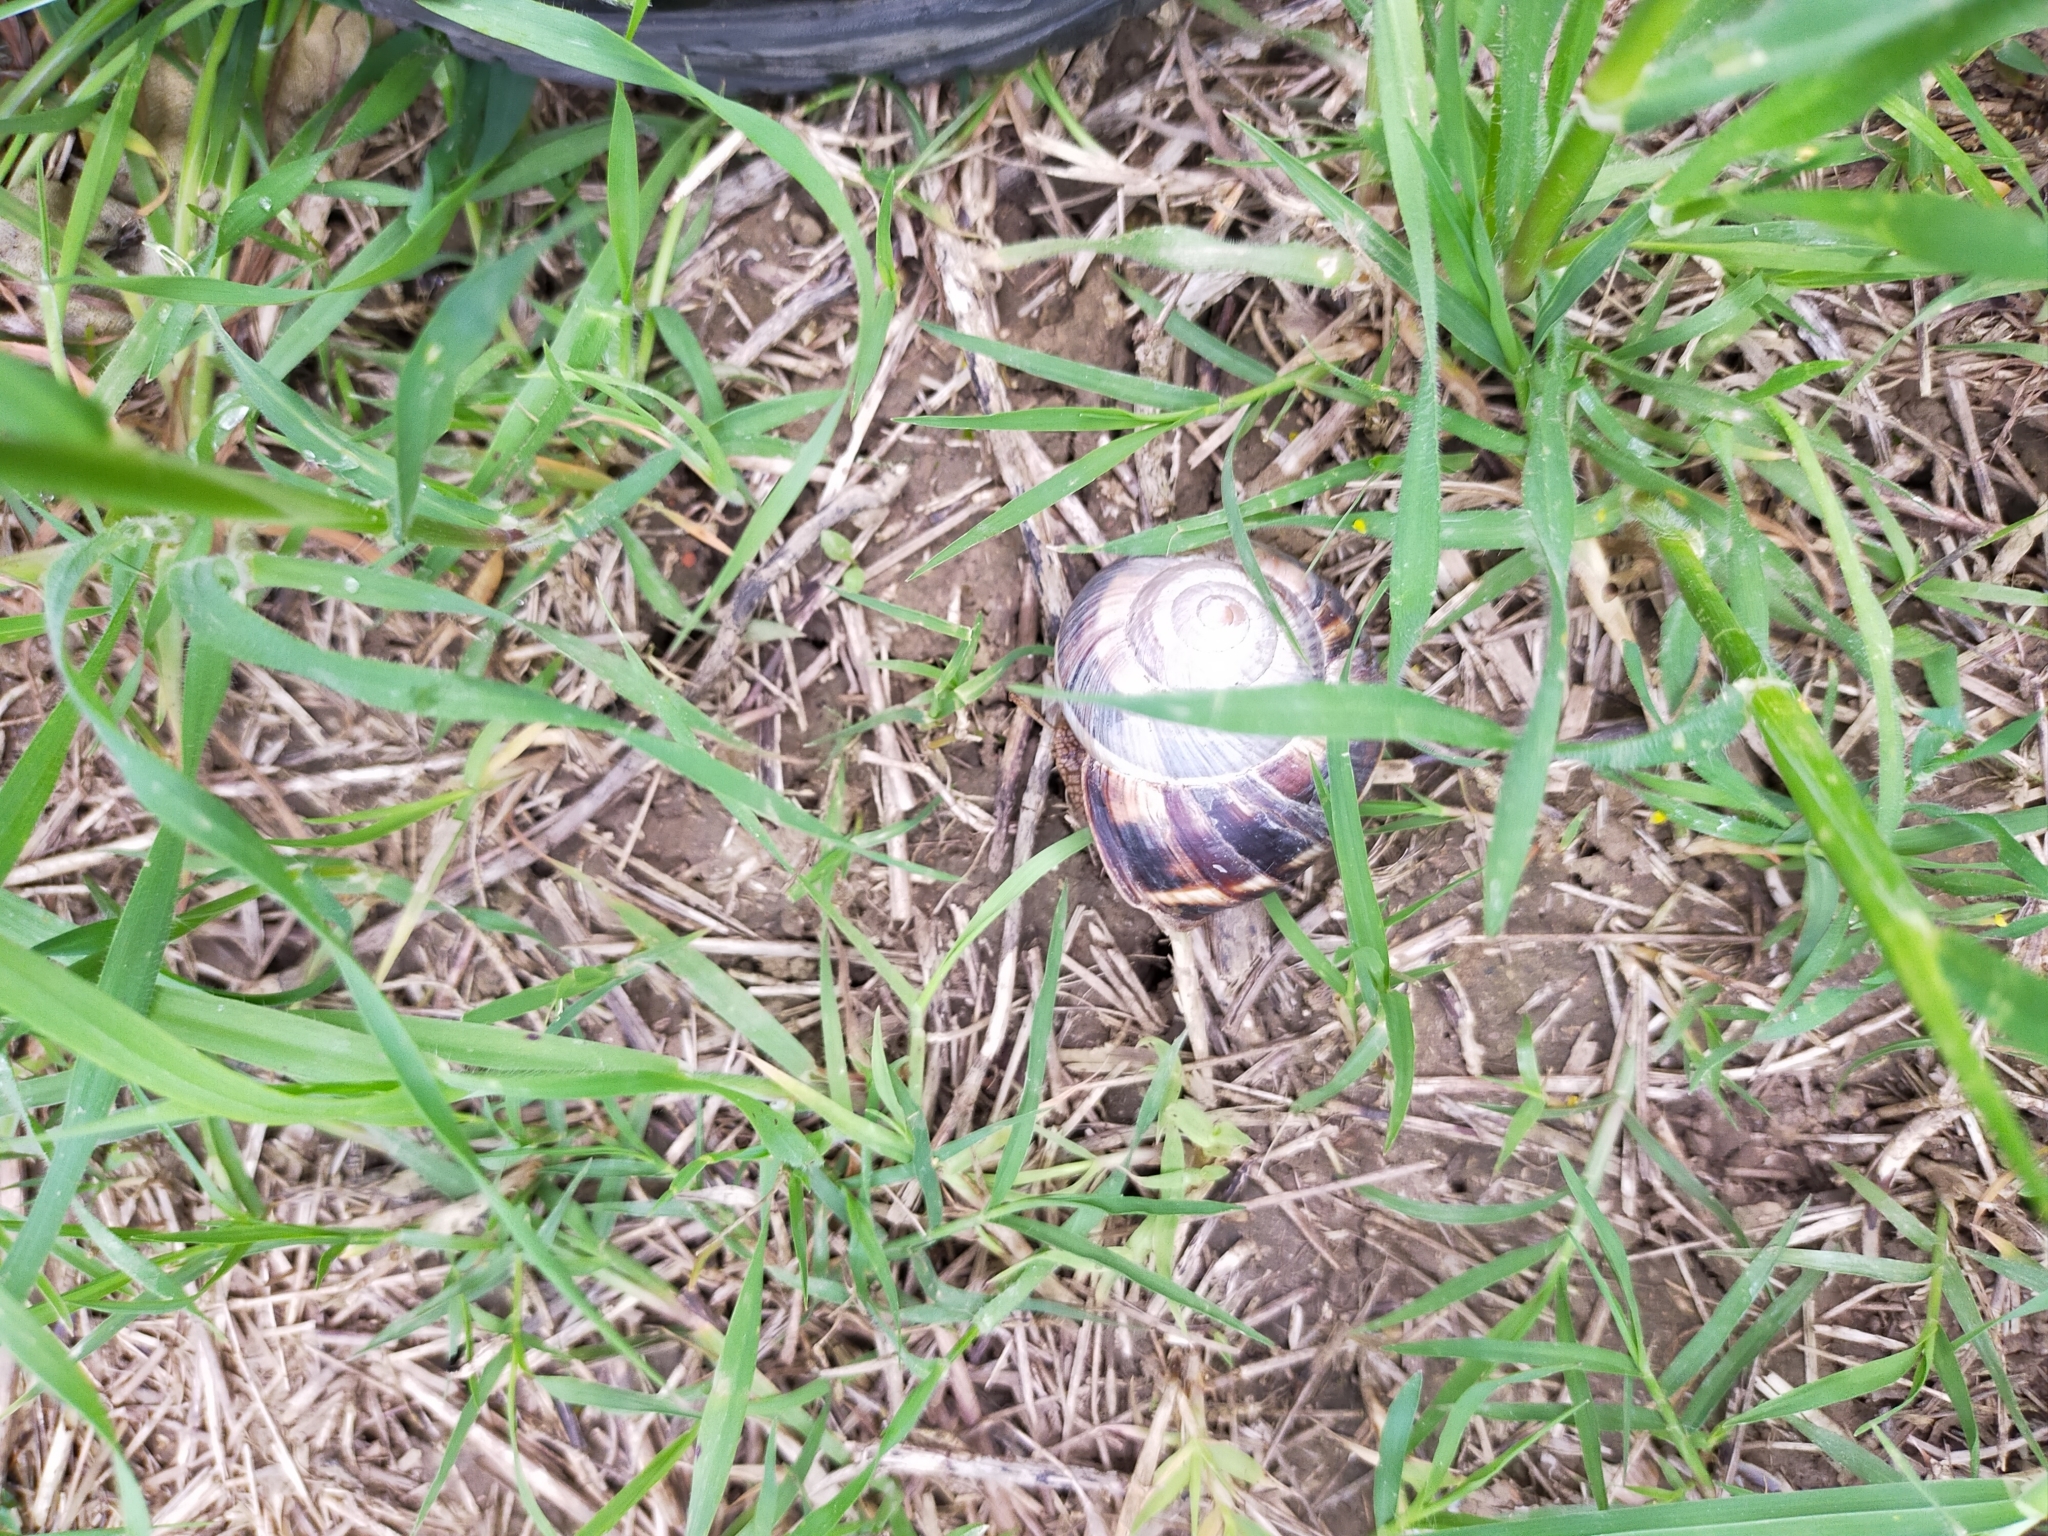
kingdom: Animalia
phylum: Mollusca
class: Gastropoda
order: Stylommatophora
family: Helicidae
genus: Helix
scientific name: Helix lucorum
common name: Turkish snail
